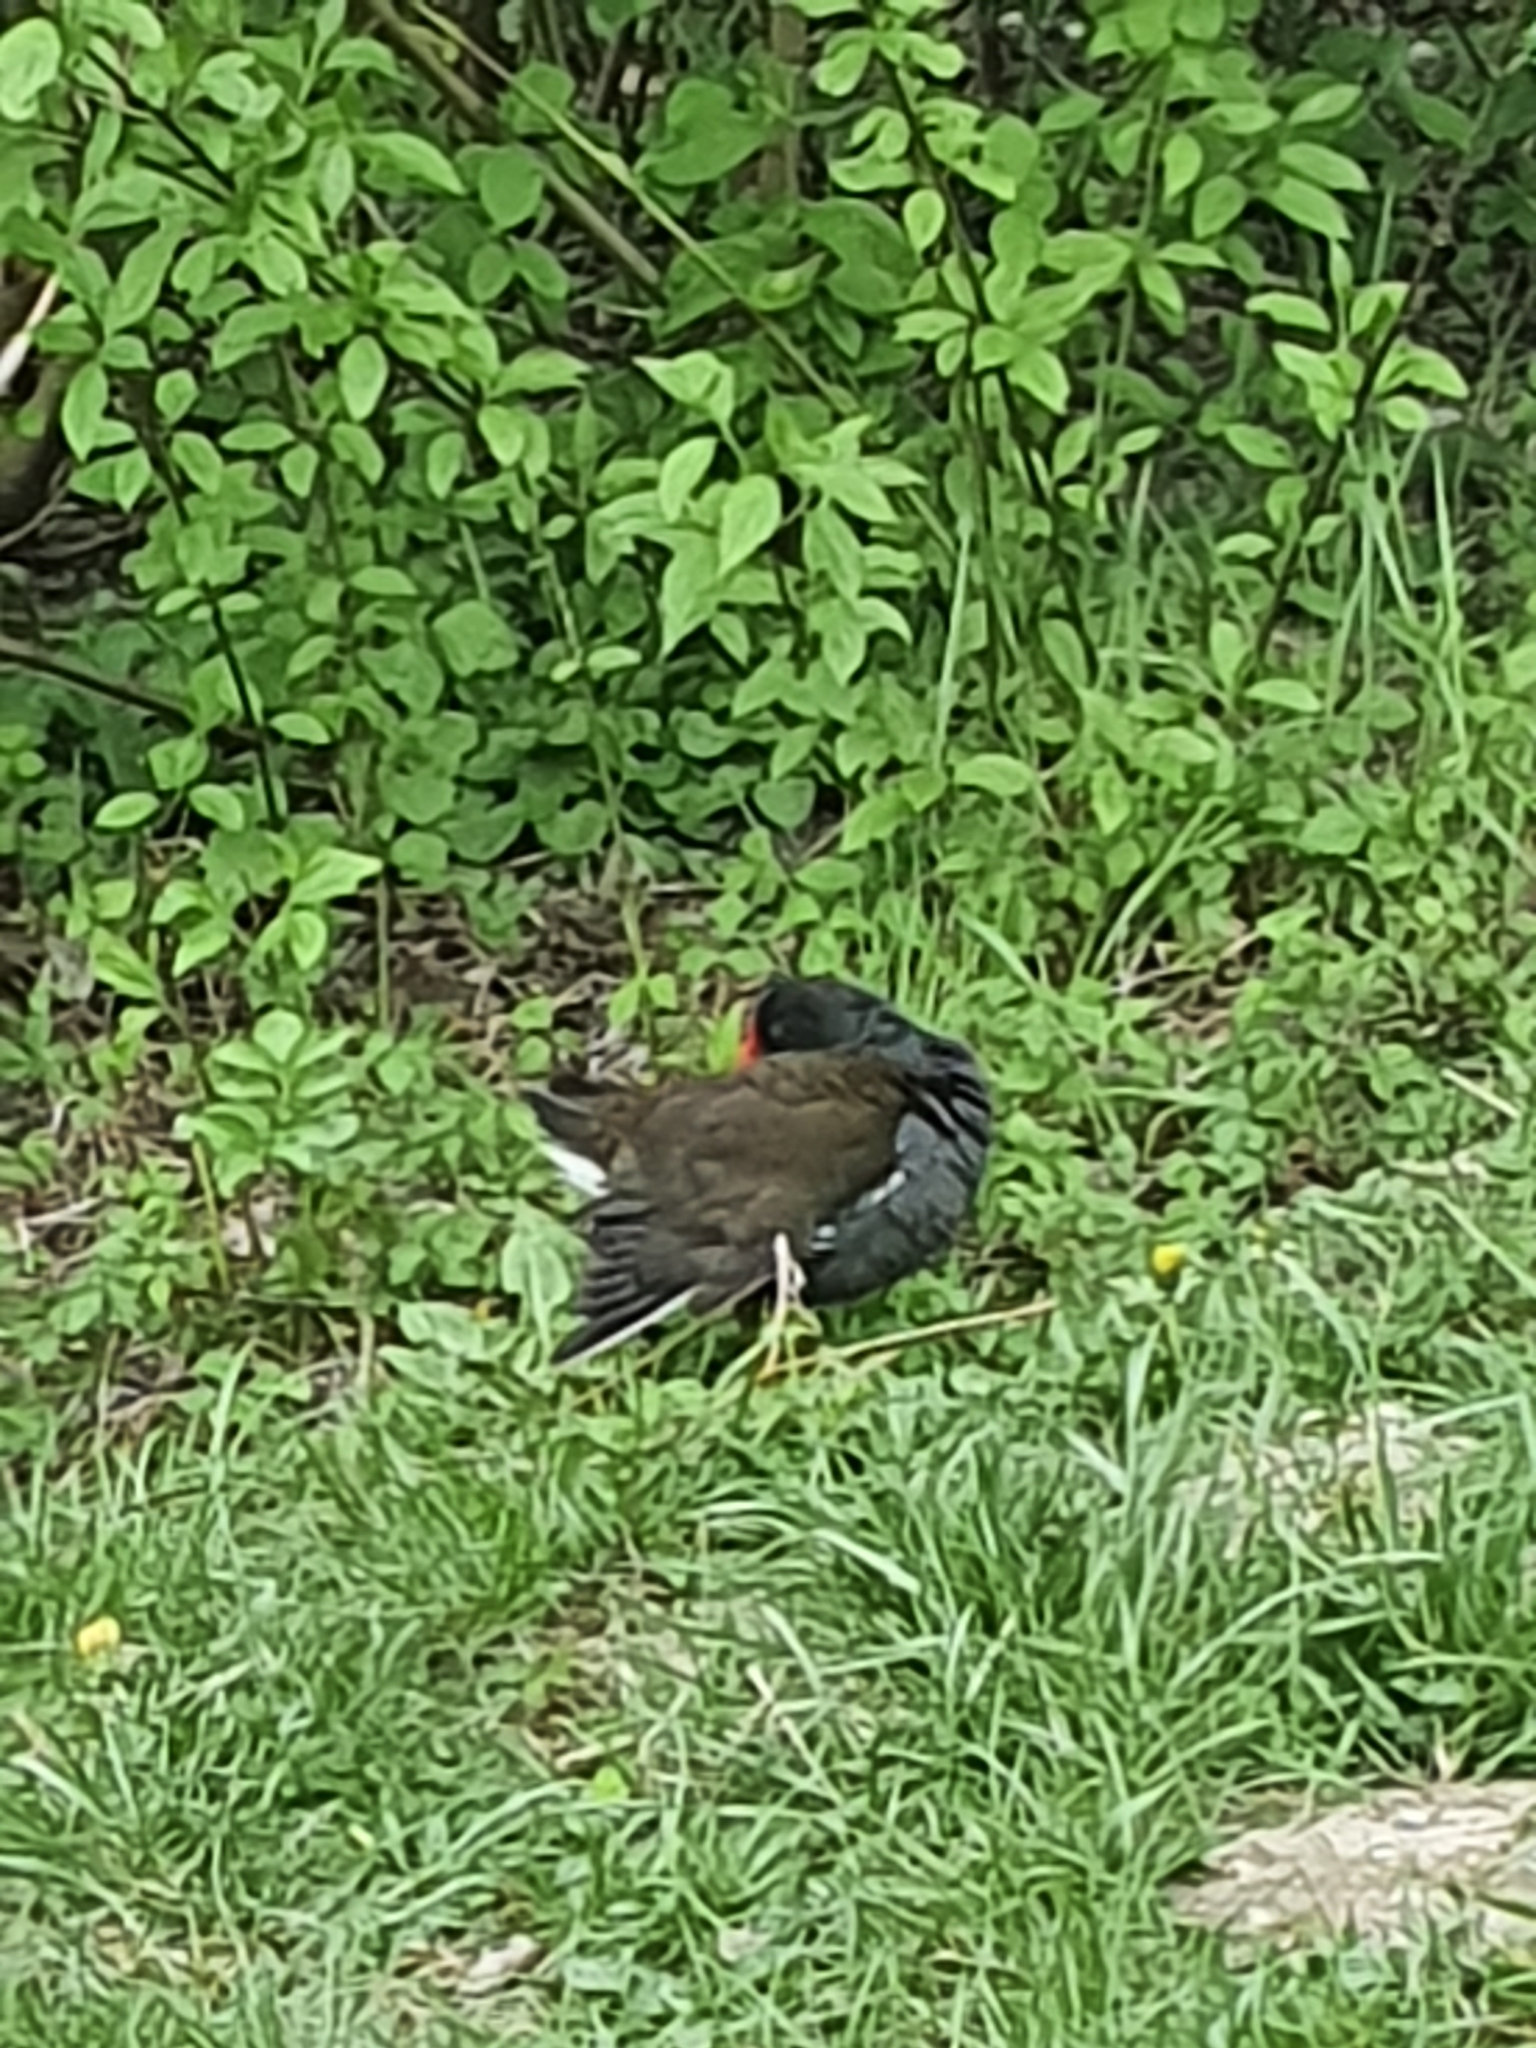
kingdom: Animalia
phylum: Chordata
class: Aves
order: Gruiformes
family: Rallidae
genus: Gallinula
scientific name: Gallinula chloropus
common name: Common moorhen
